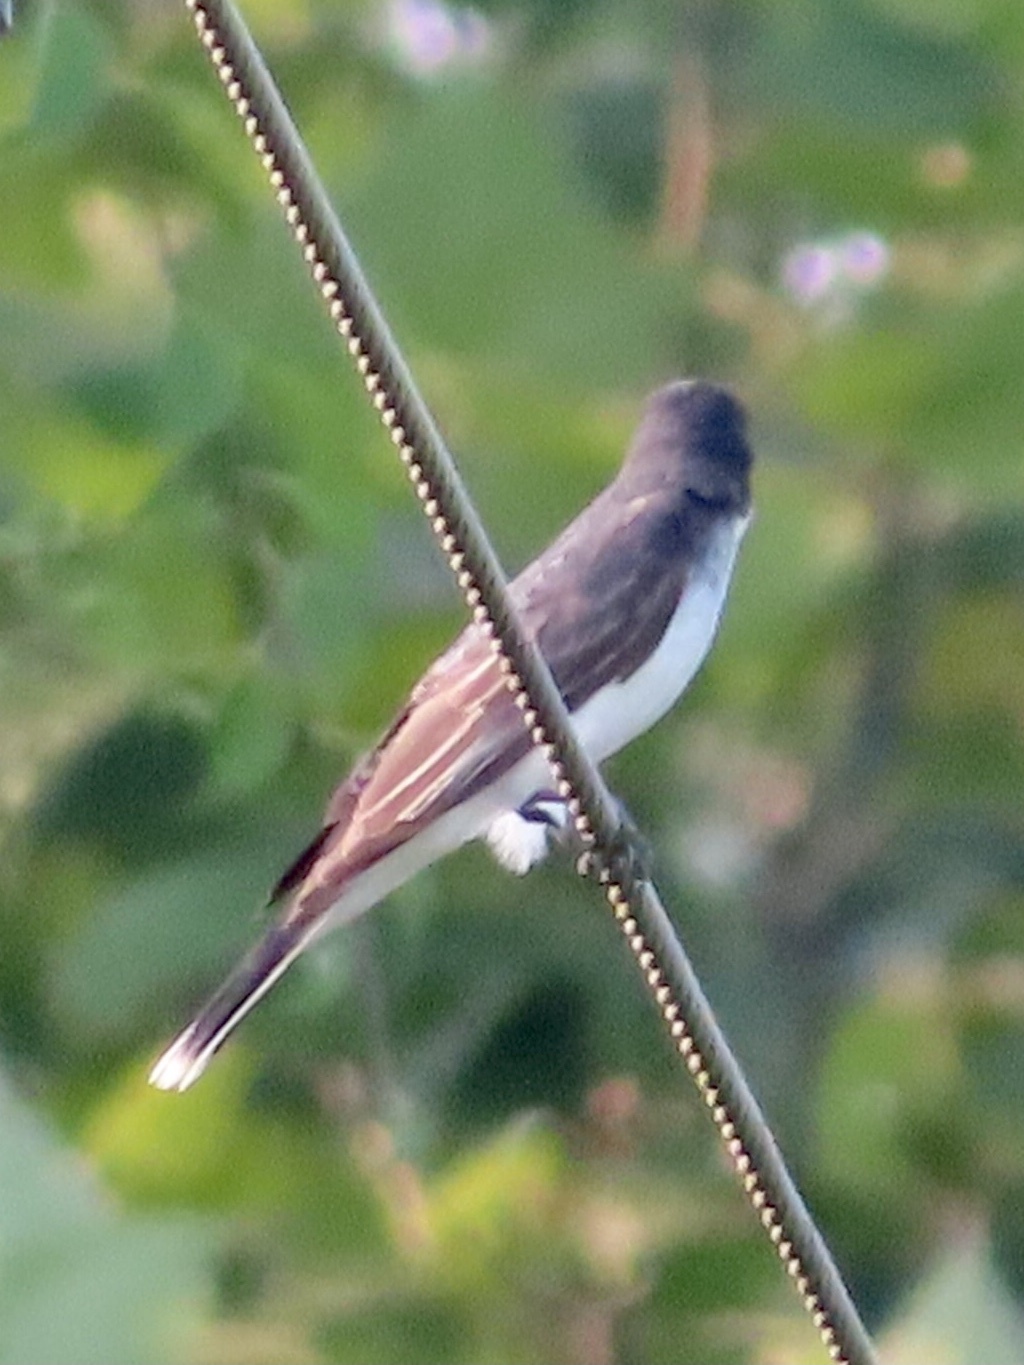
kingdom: Animalia
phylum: Chordata
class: Aves
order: Passeriformes
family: Tyrannidae
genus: Tyrannus
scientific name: Tyrannus tyrannus
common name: Eastern kingbird
